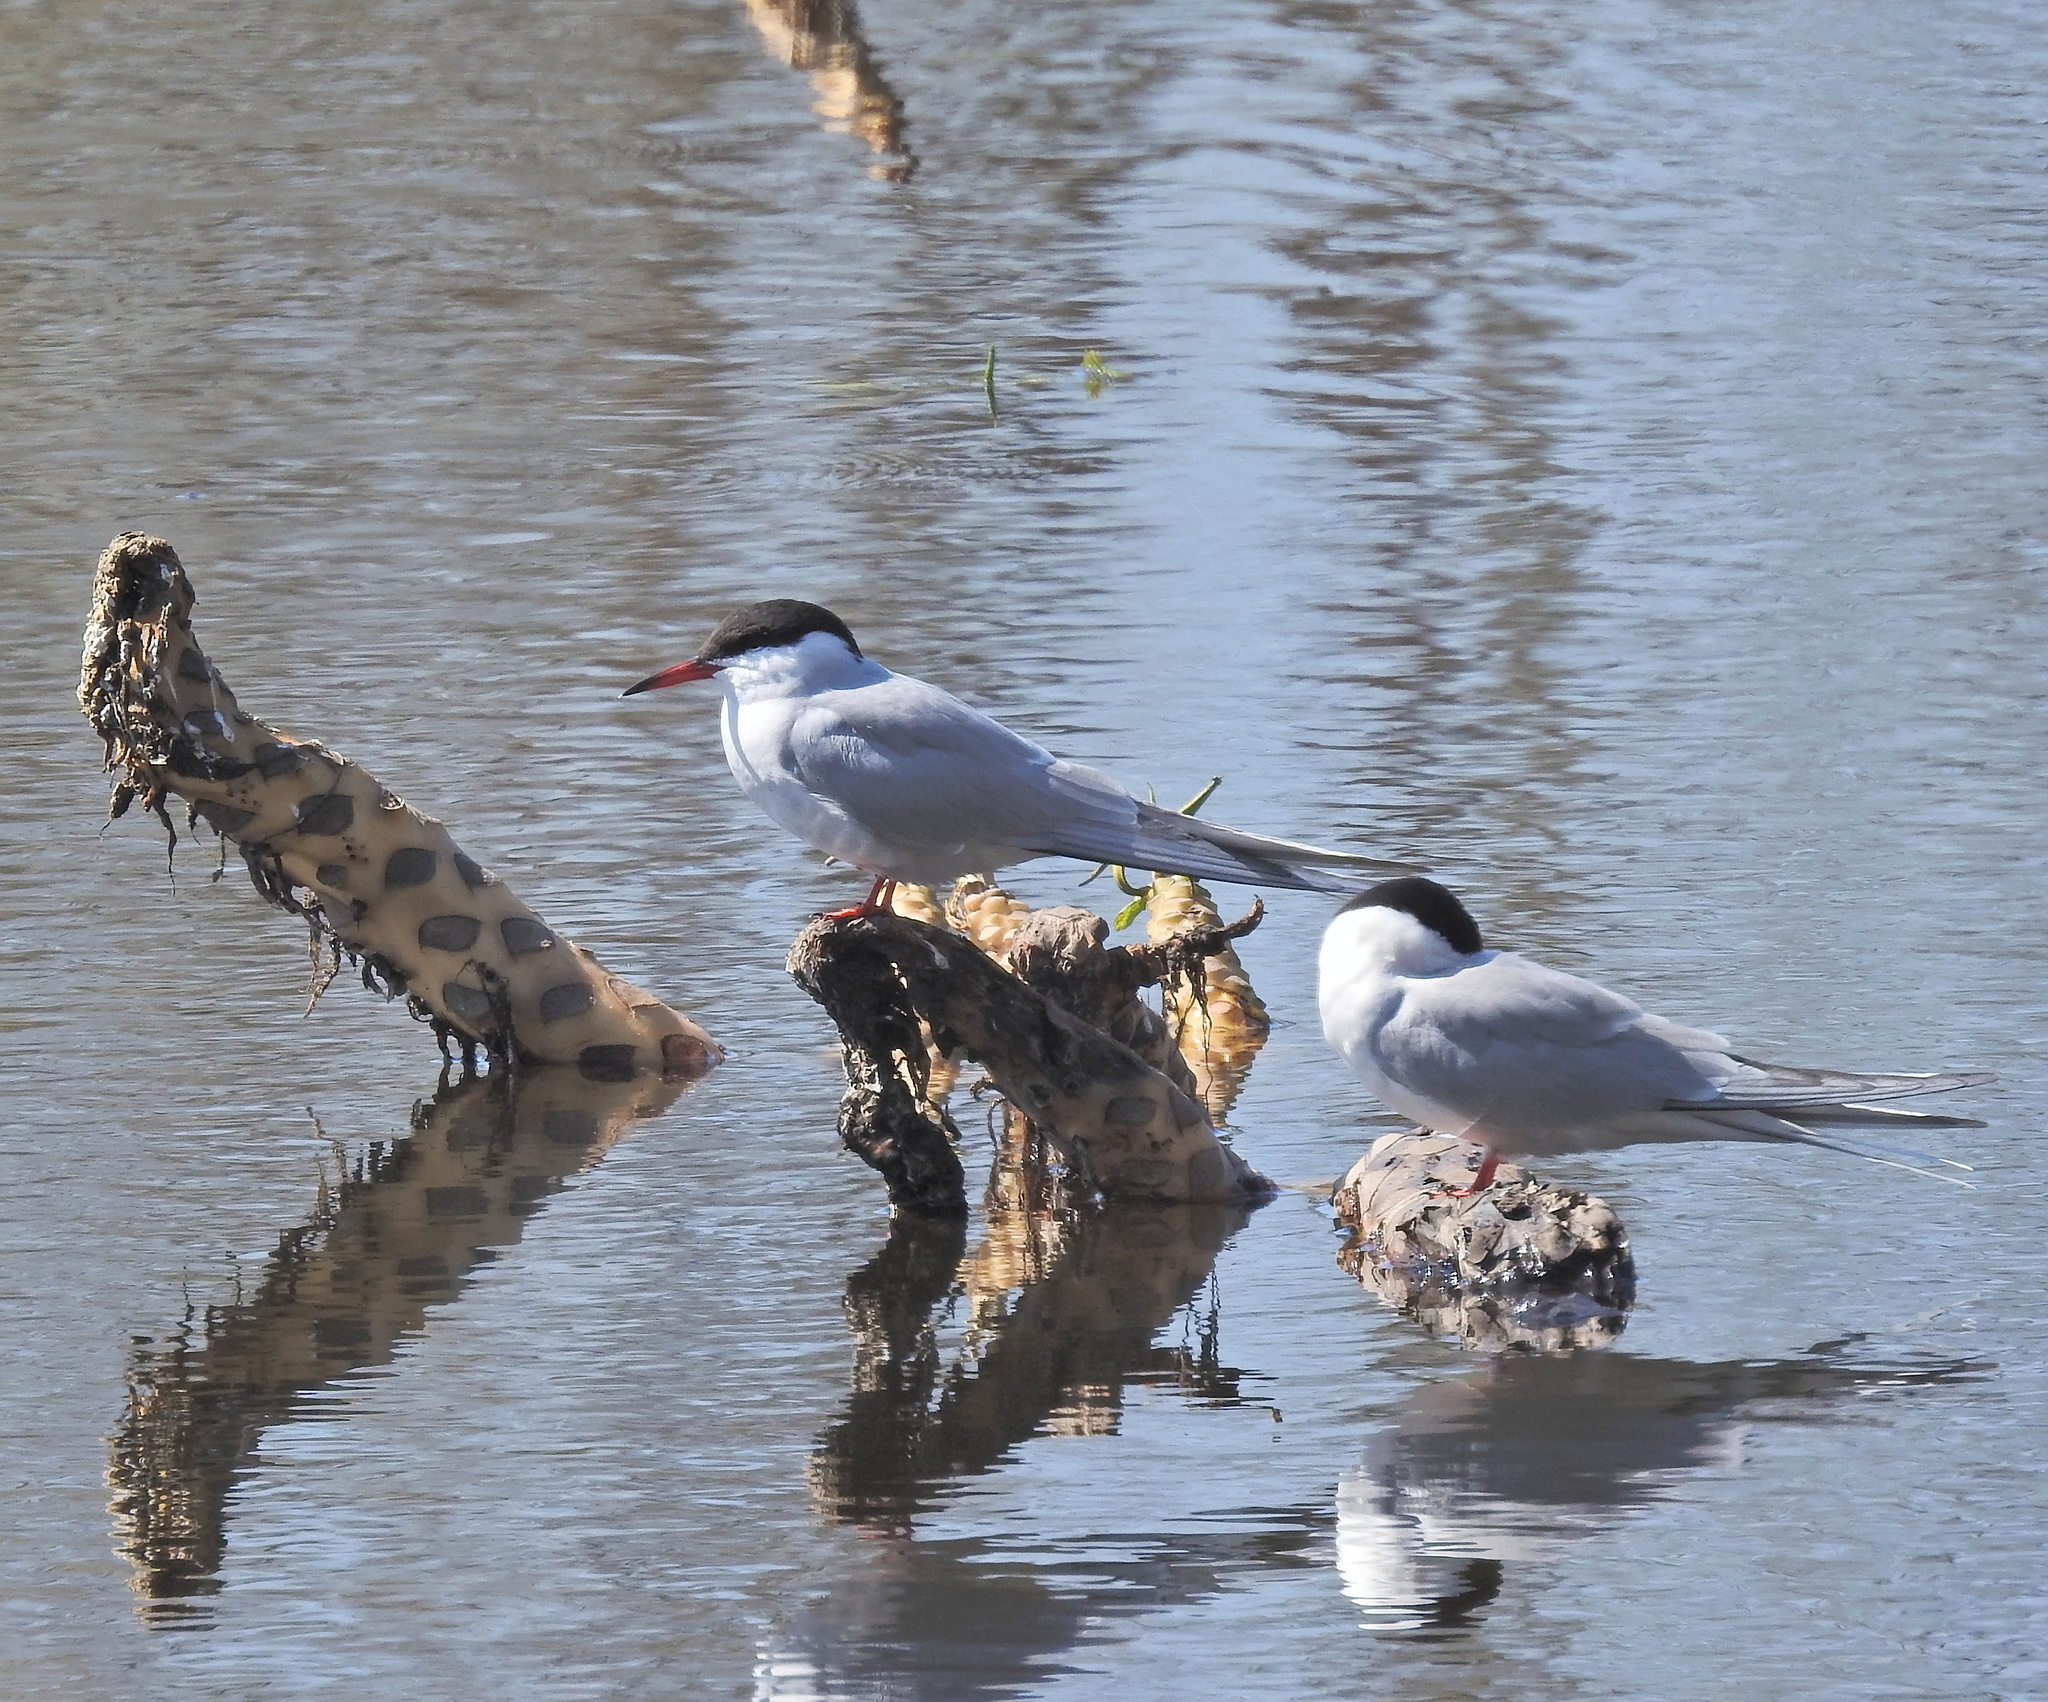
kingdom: Animalia
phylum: Chordata
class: Aves
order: Charadriiformes
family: Laridae
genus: Sterna
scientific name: Sterna hirundo
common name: Common tern
